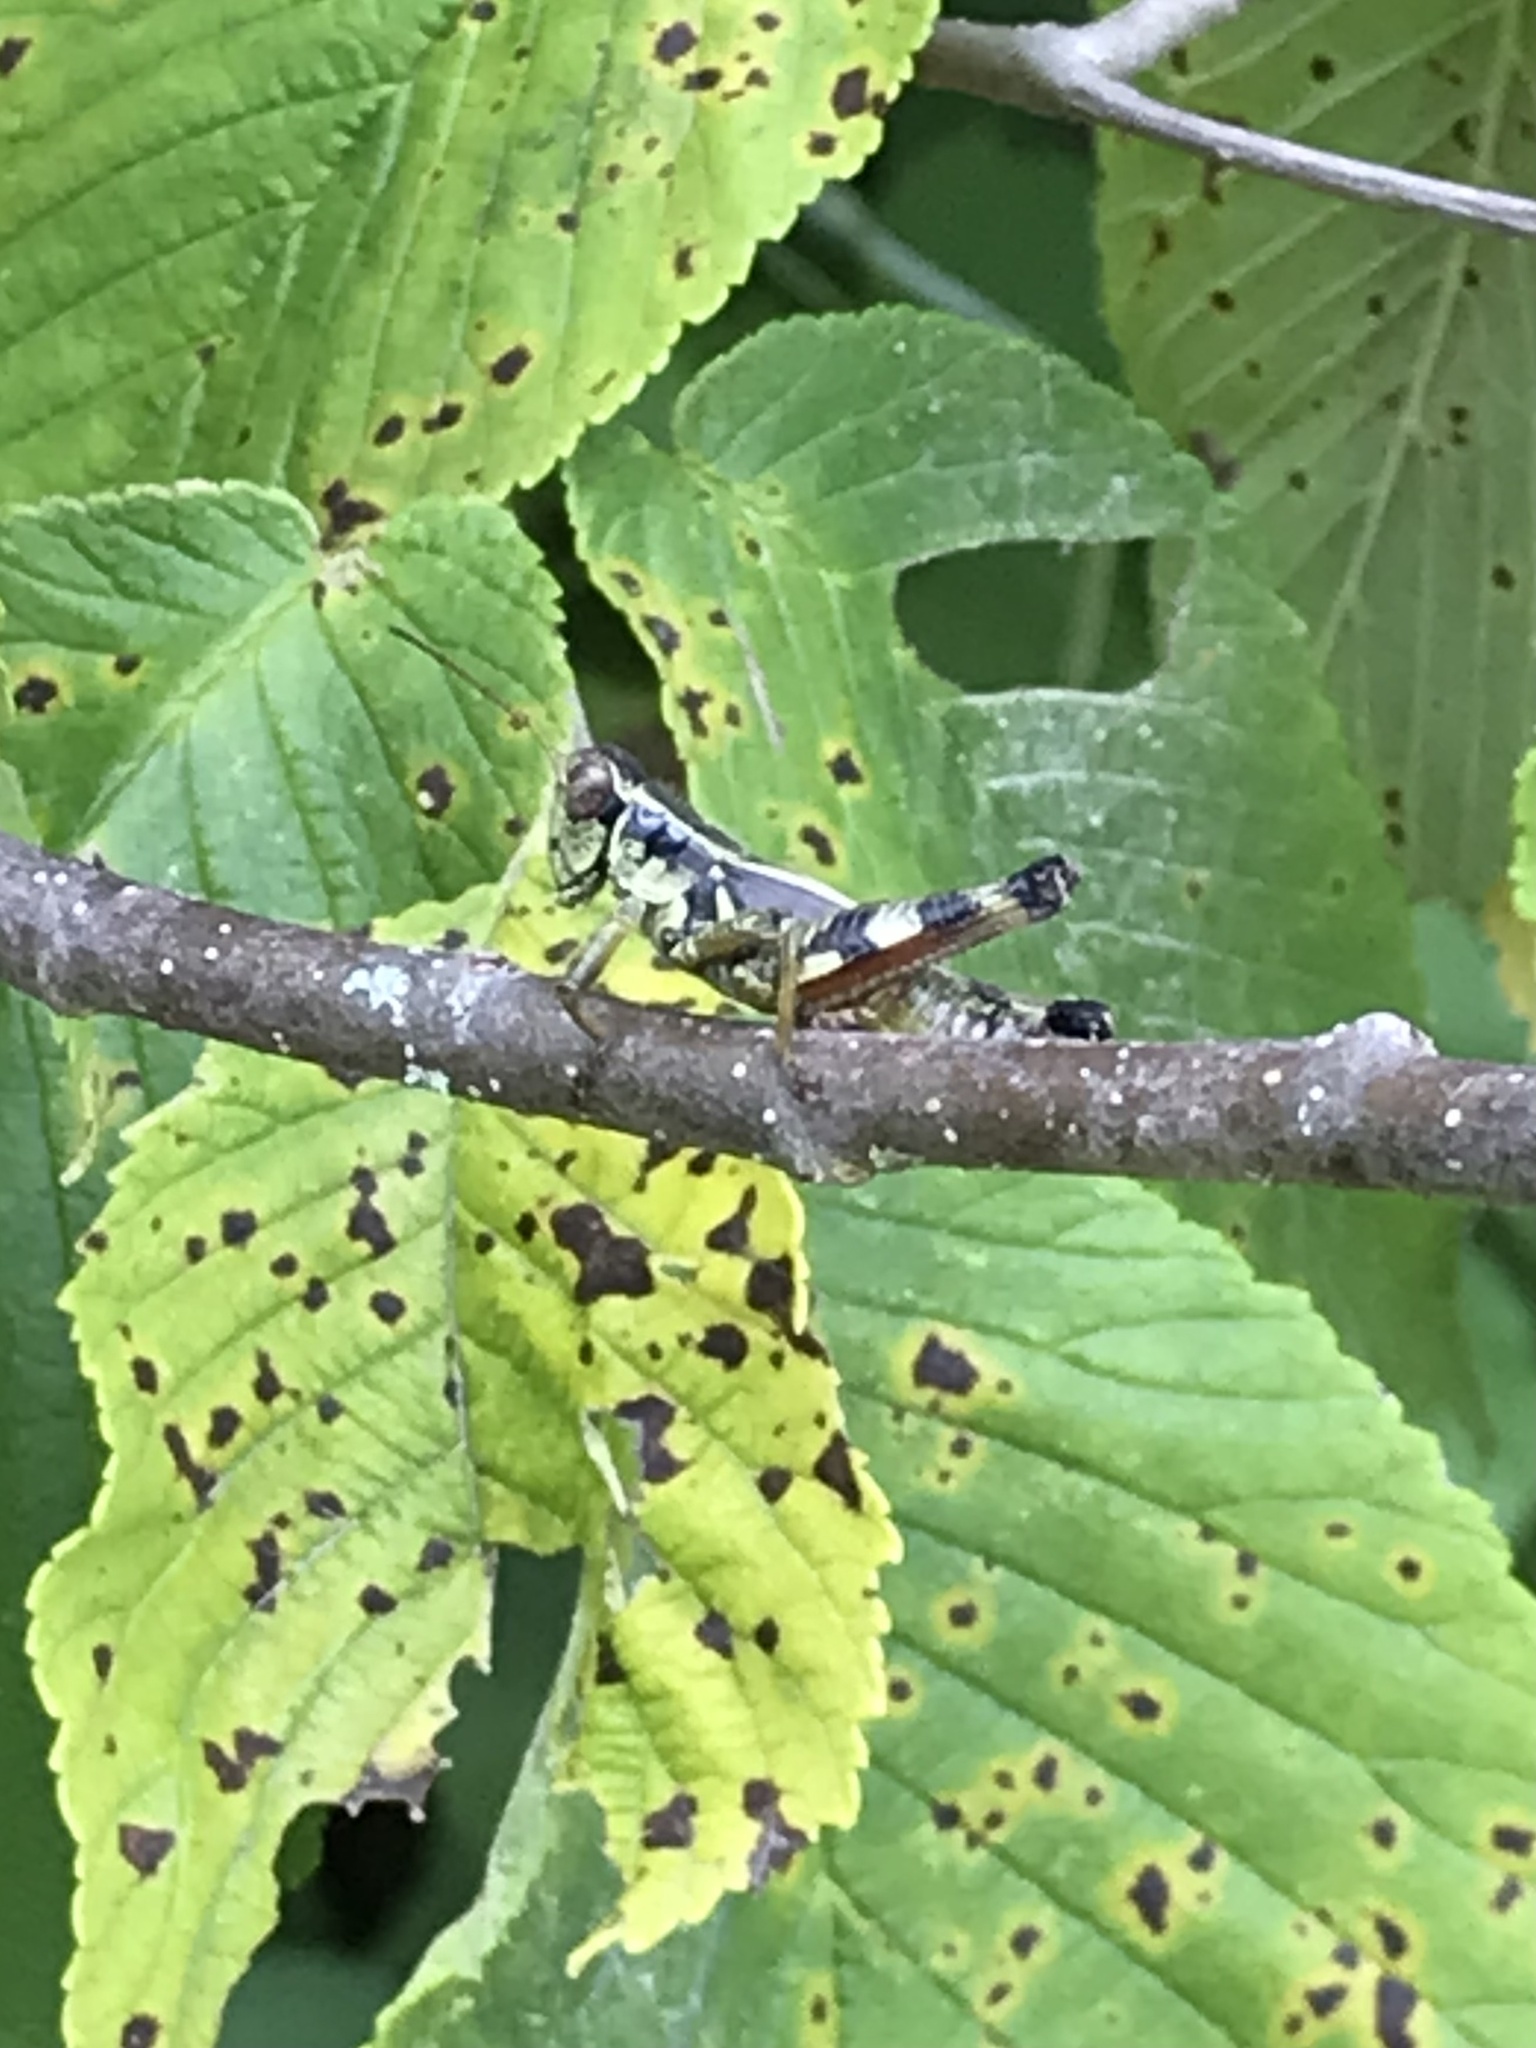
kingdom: Animalia
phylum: Arthropoda
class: Insecta
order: Orthoptera
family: Acrididae
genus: Melanoplus
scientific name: Melanoplus walshii
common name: Walsh's locust
